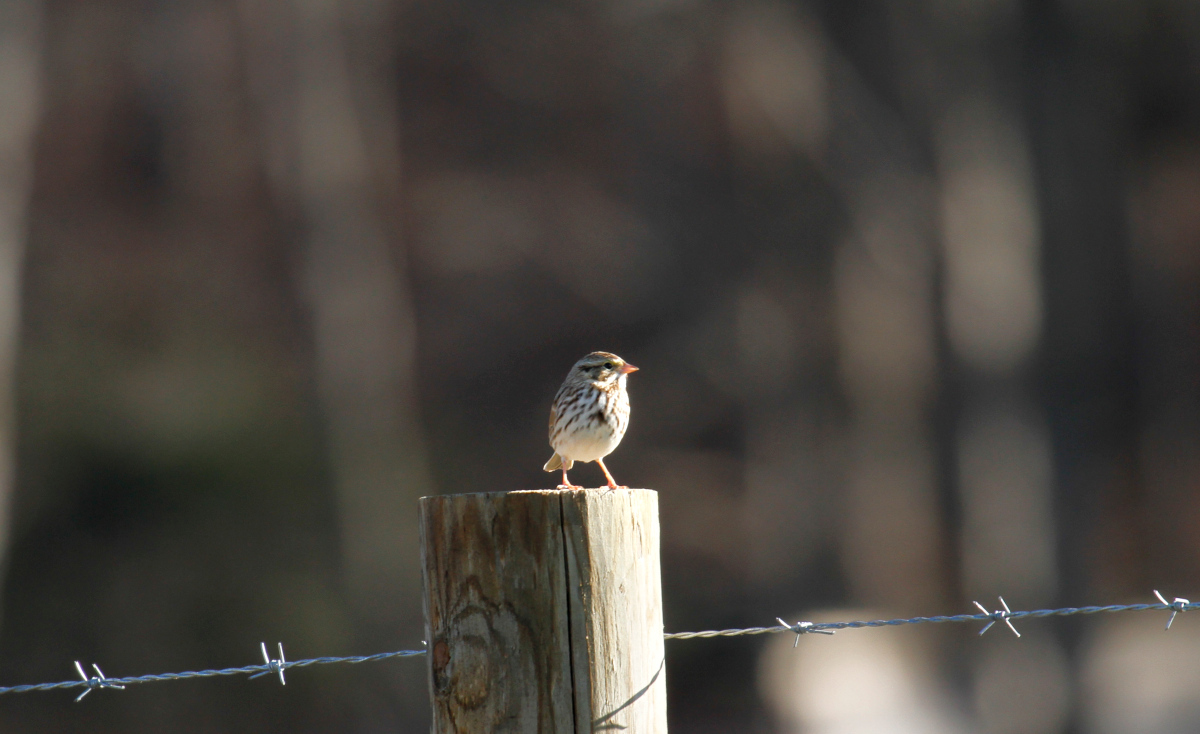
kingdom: Animalia
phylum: Chordata
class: Aves
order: Passeriformes
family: Passerellidae
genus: Passerculus
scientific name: Passerculus sandwichensis
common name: Savannah sparrow
